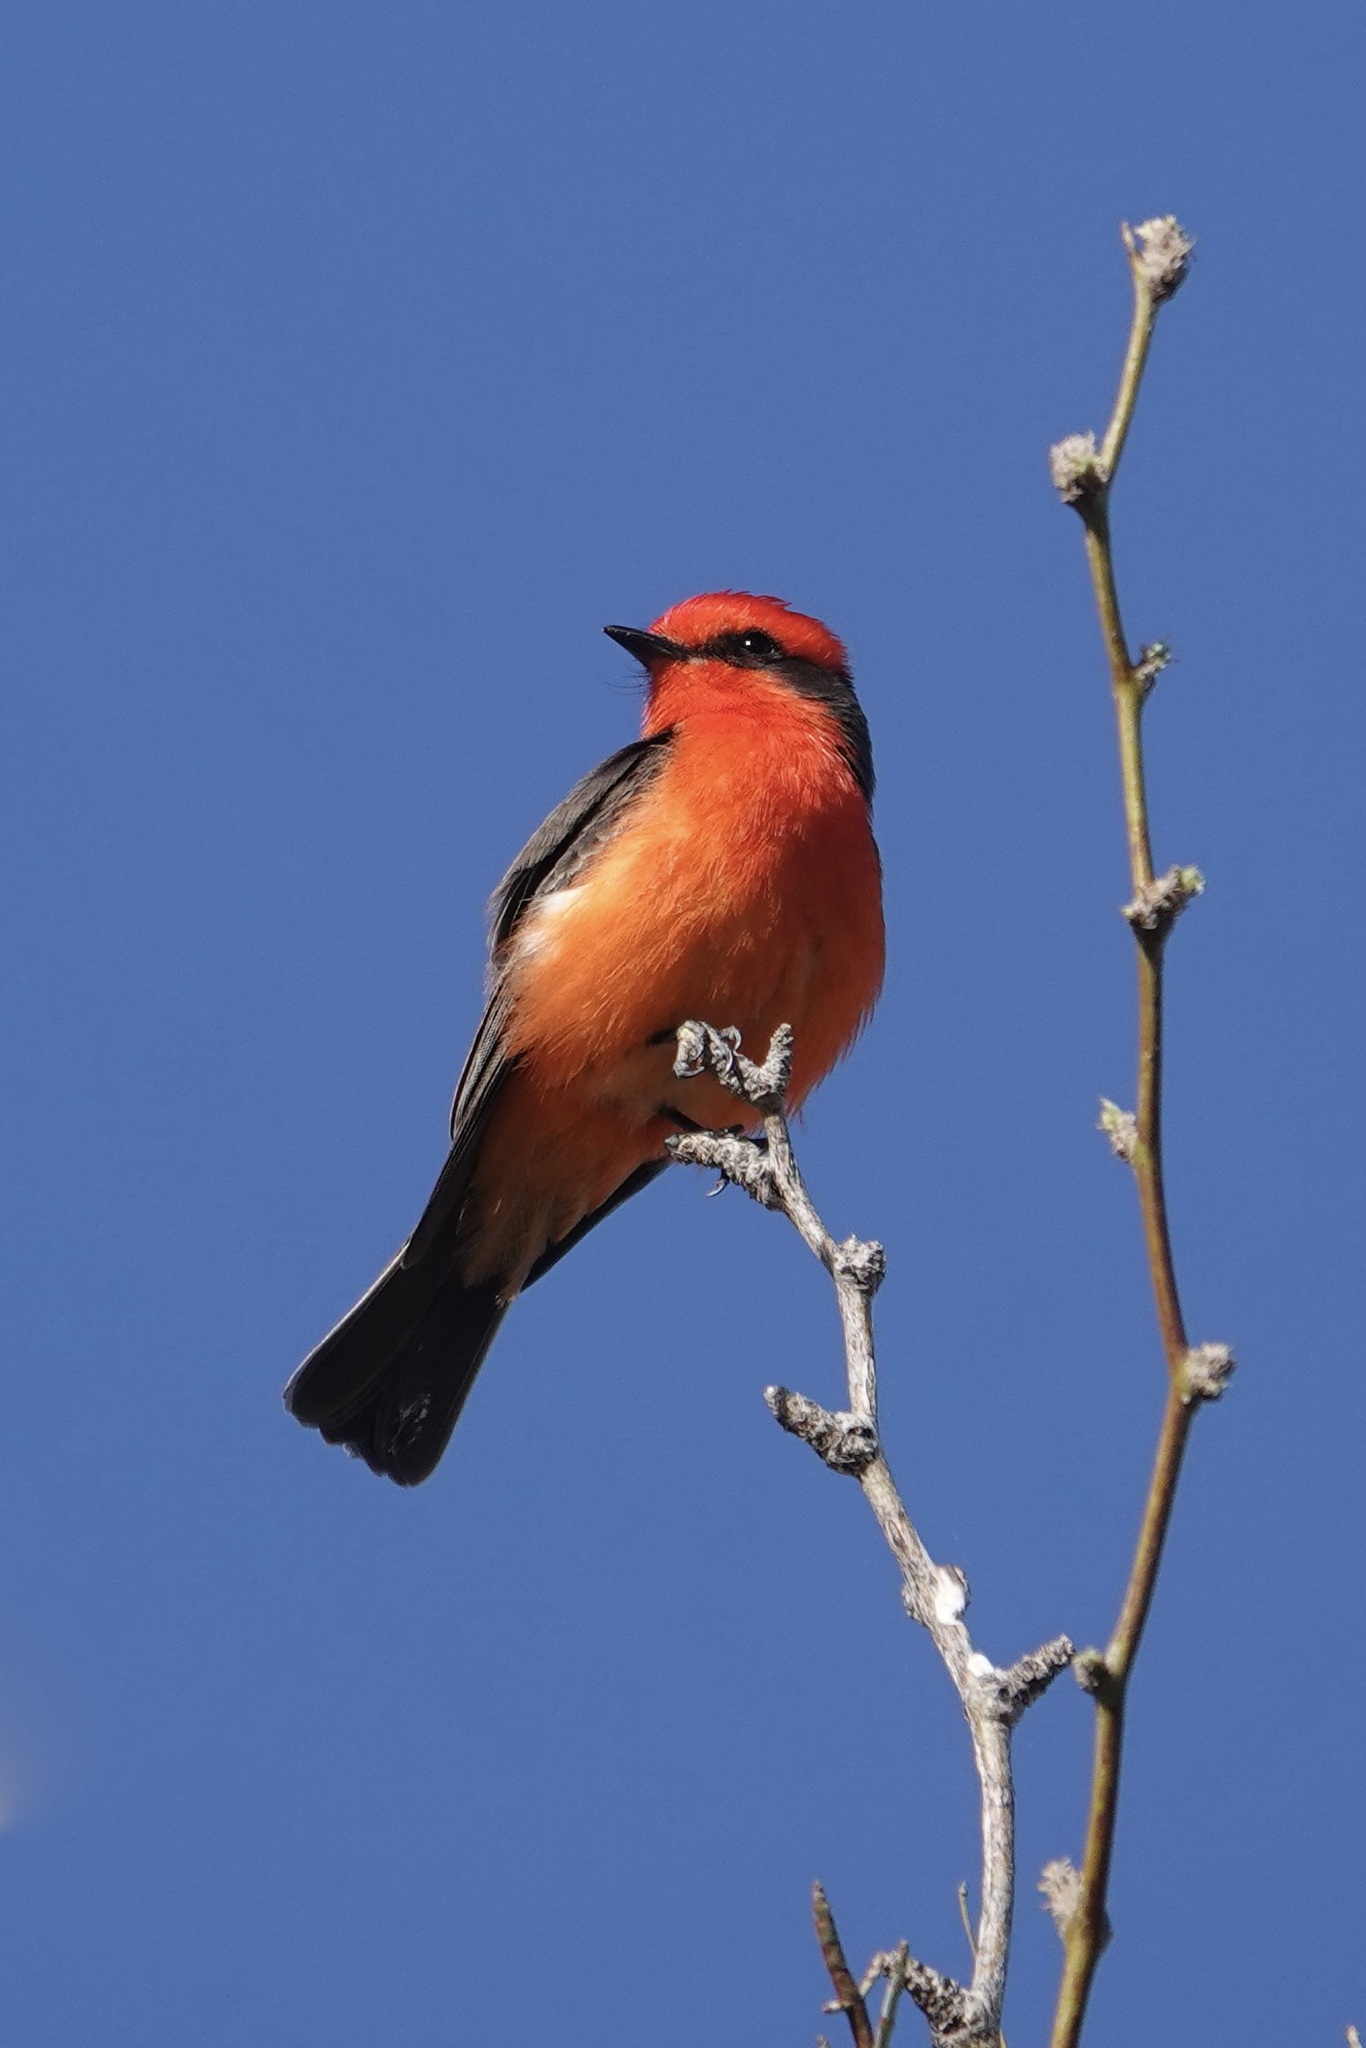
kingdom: Animalia
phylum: Chordata
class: Aves
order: Passeriformes
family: Tyrannidae
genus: Pyrocephalus
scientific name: Pyrocephalus rubinus
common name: Vermilion flycatcher
